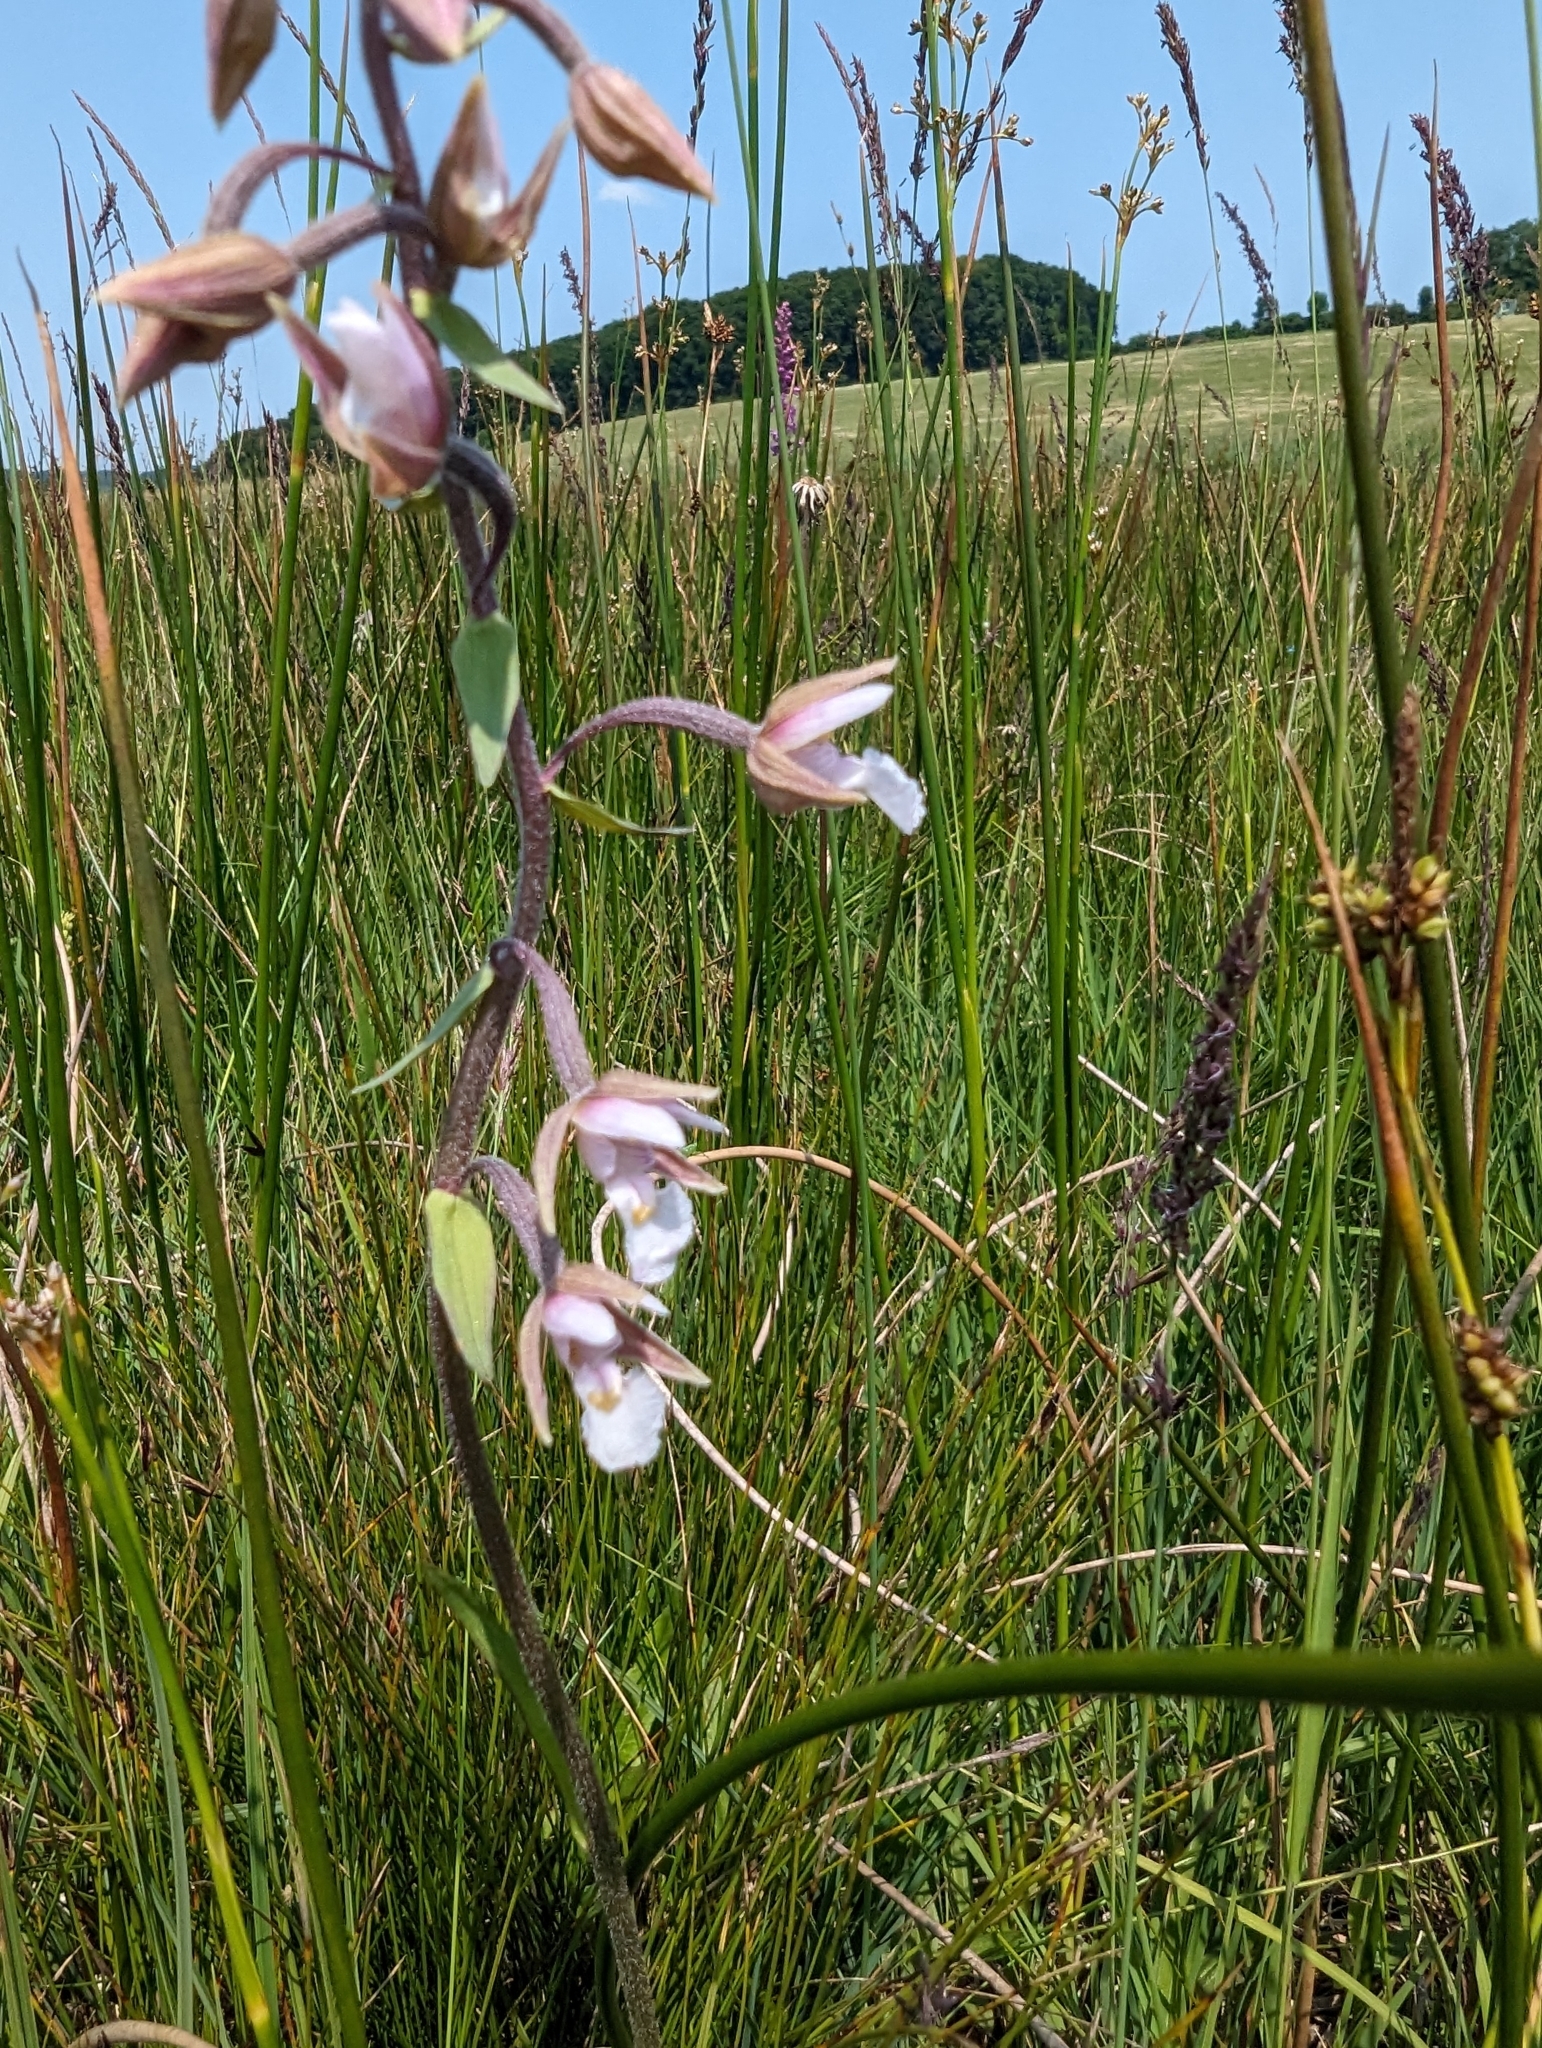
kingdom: Plantae
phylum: Tracheophyta
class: Liliopsida
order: Asparagales
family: Orchidaceae
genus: Epipactis
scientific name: Epipactis palustris
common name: Marsh helleborine
